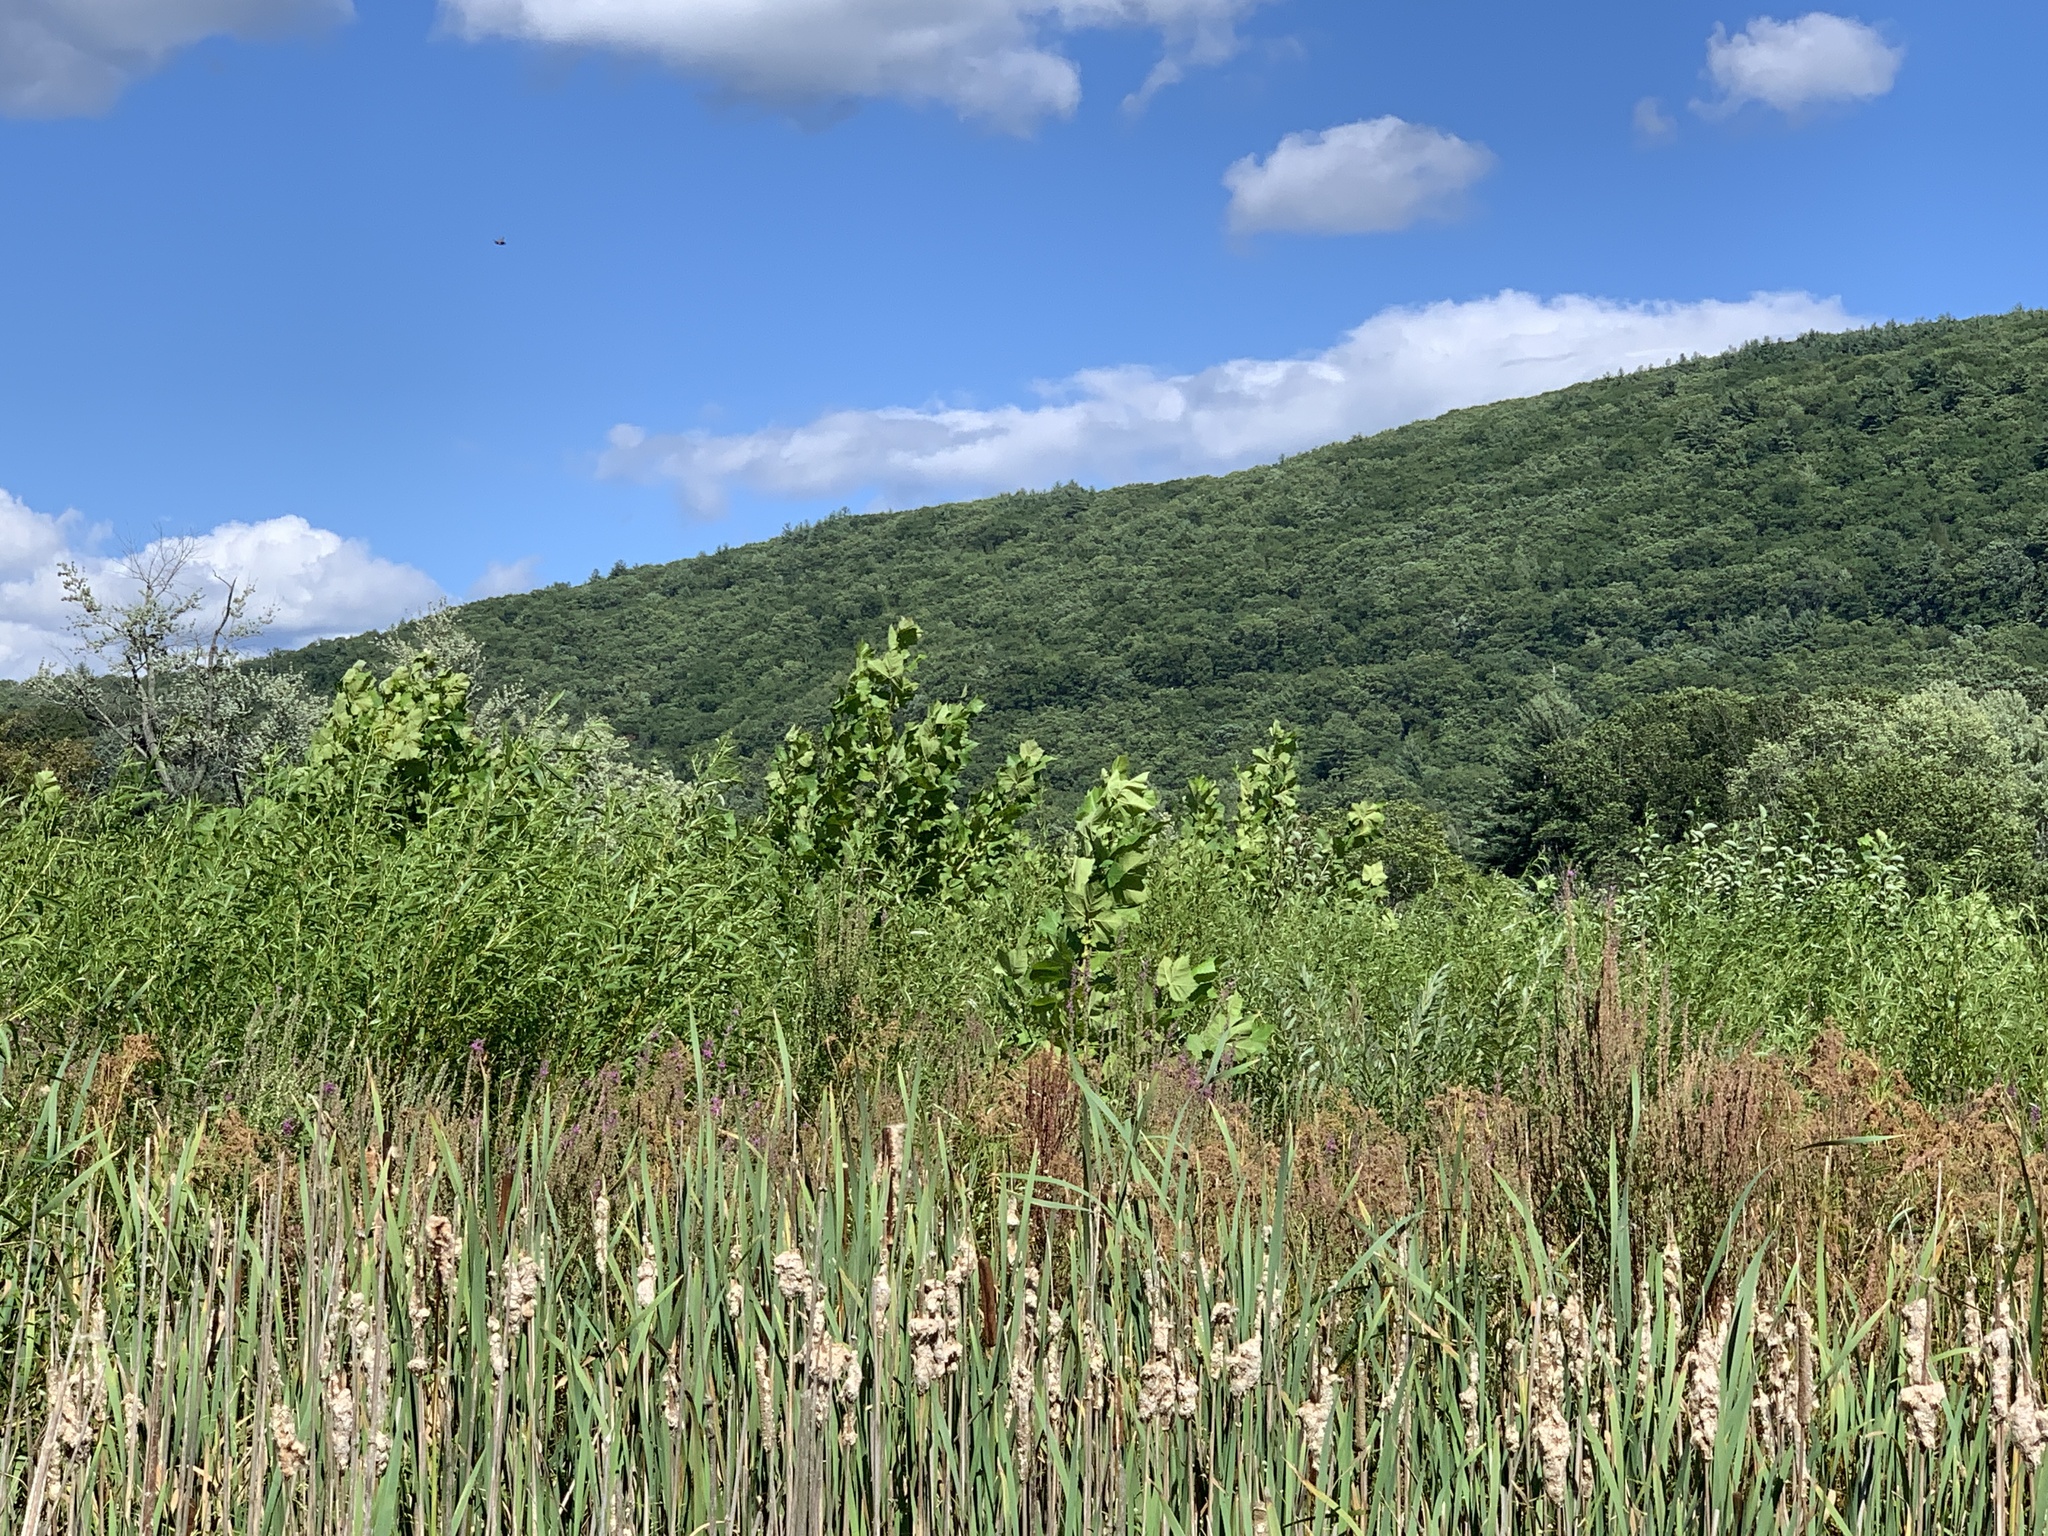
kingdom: Plantae
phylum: Tracheophyta
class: Magnoliopsida
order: Proteales
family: Platanaceae
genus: Platanus
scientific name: Platanus occidentalis
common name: American sycamore
